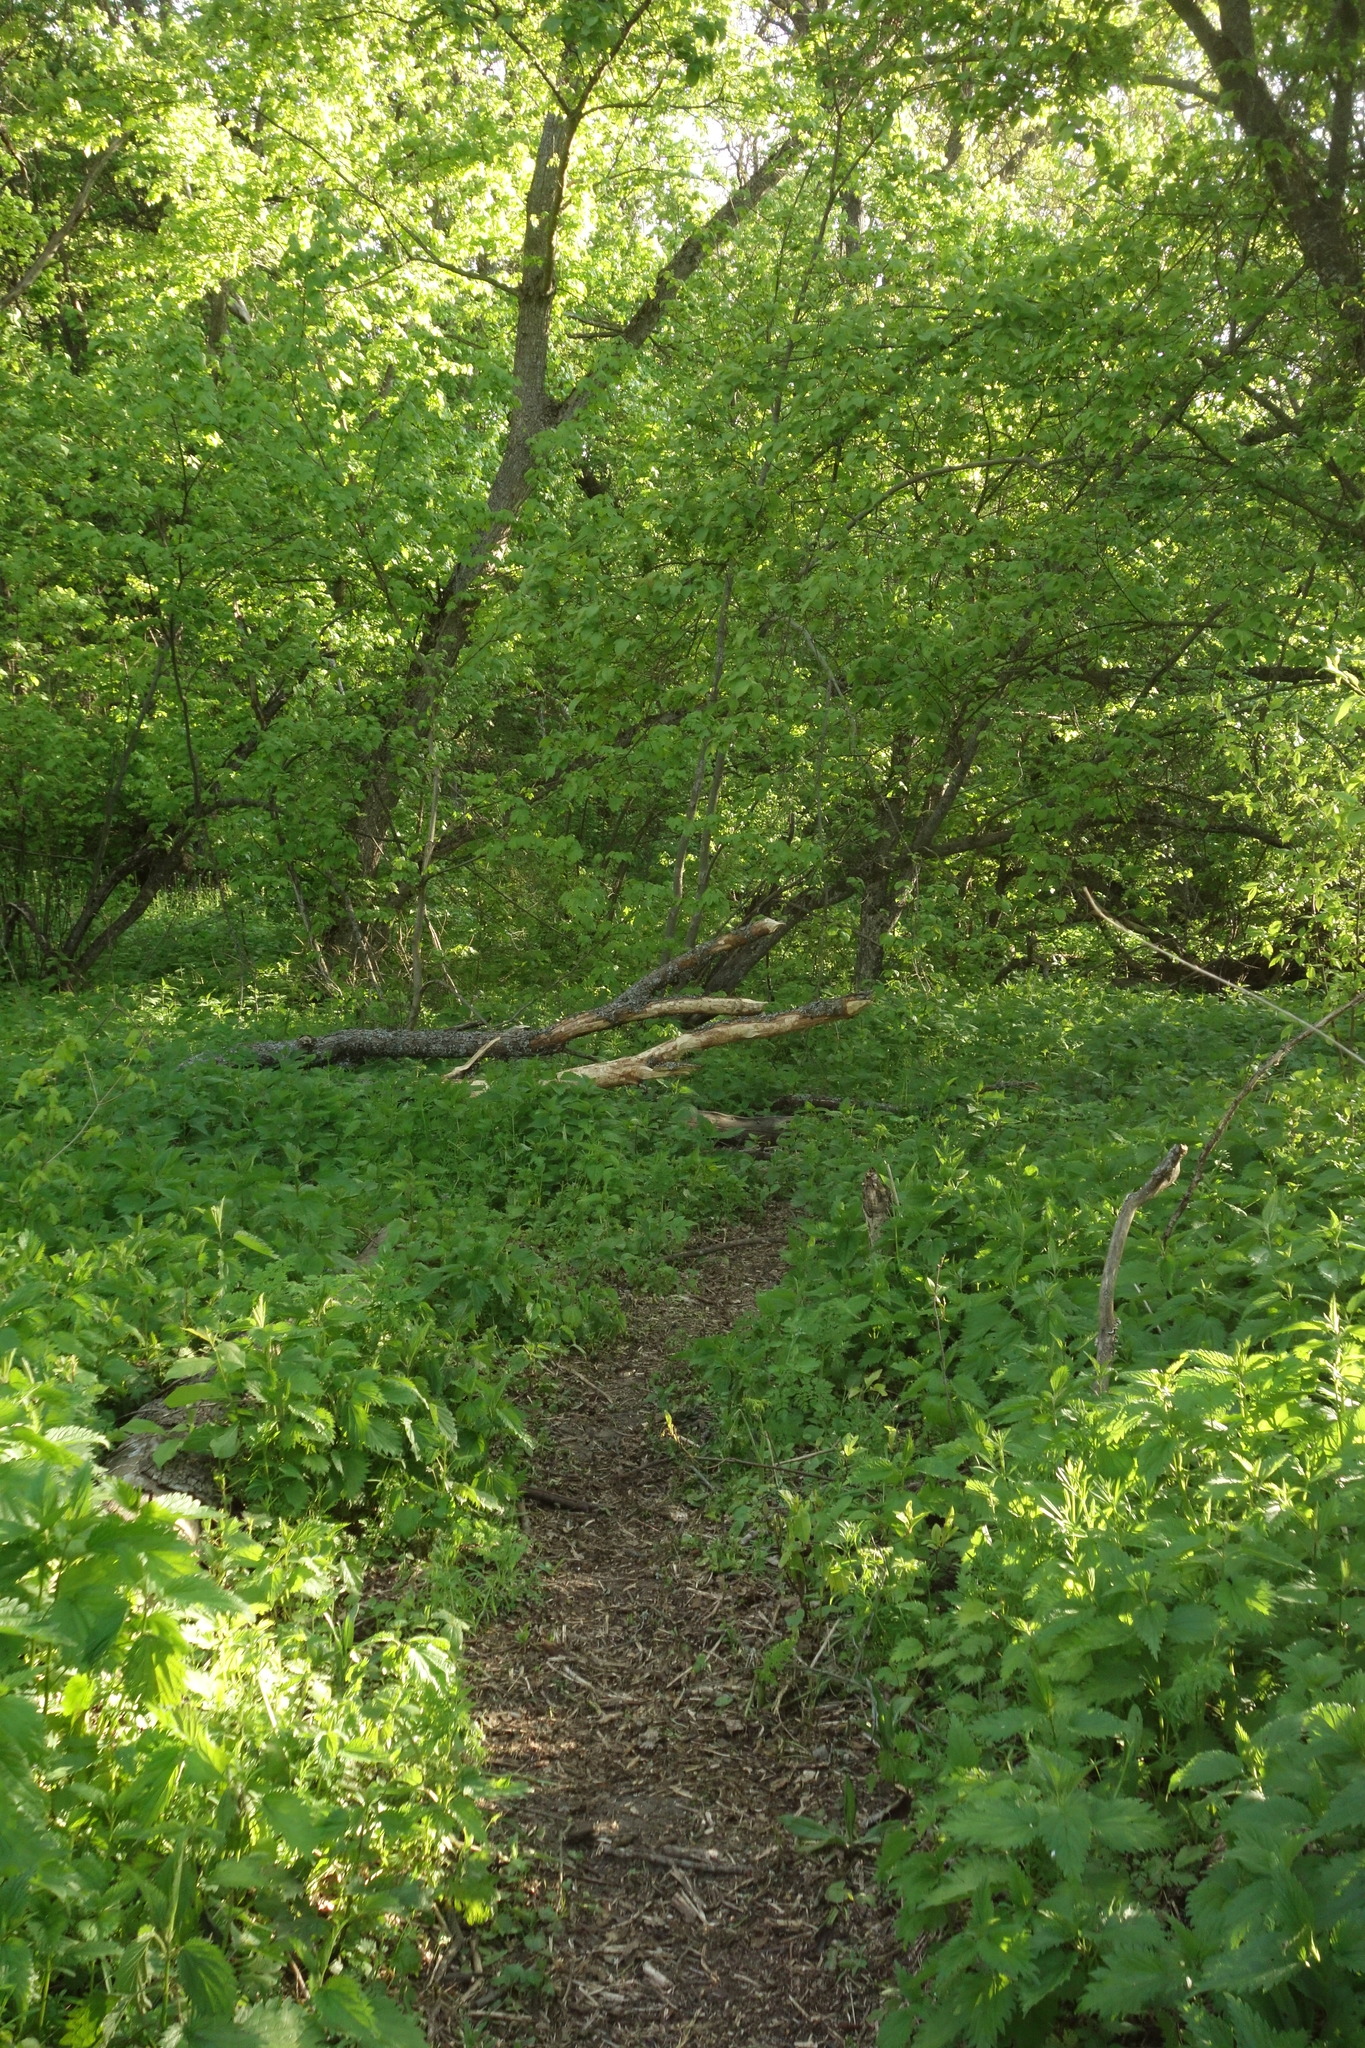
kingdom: Animalia
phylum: Chordata
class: Mammalia
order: Rodentia
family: Castoridae
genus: Castor
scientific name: Castor fiber
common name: Eurasian beaver
